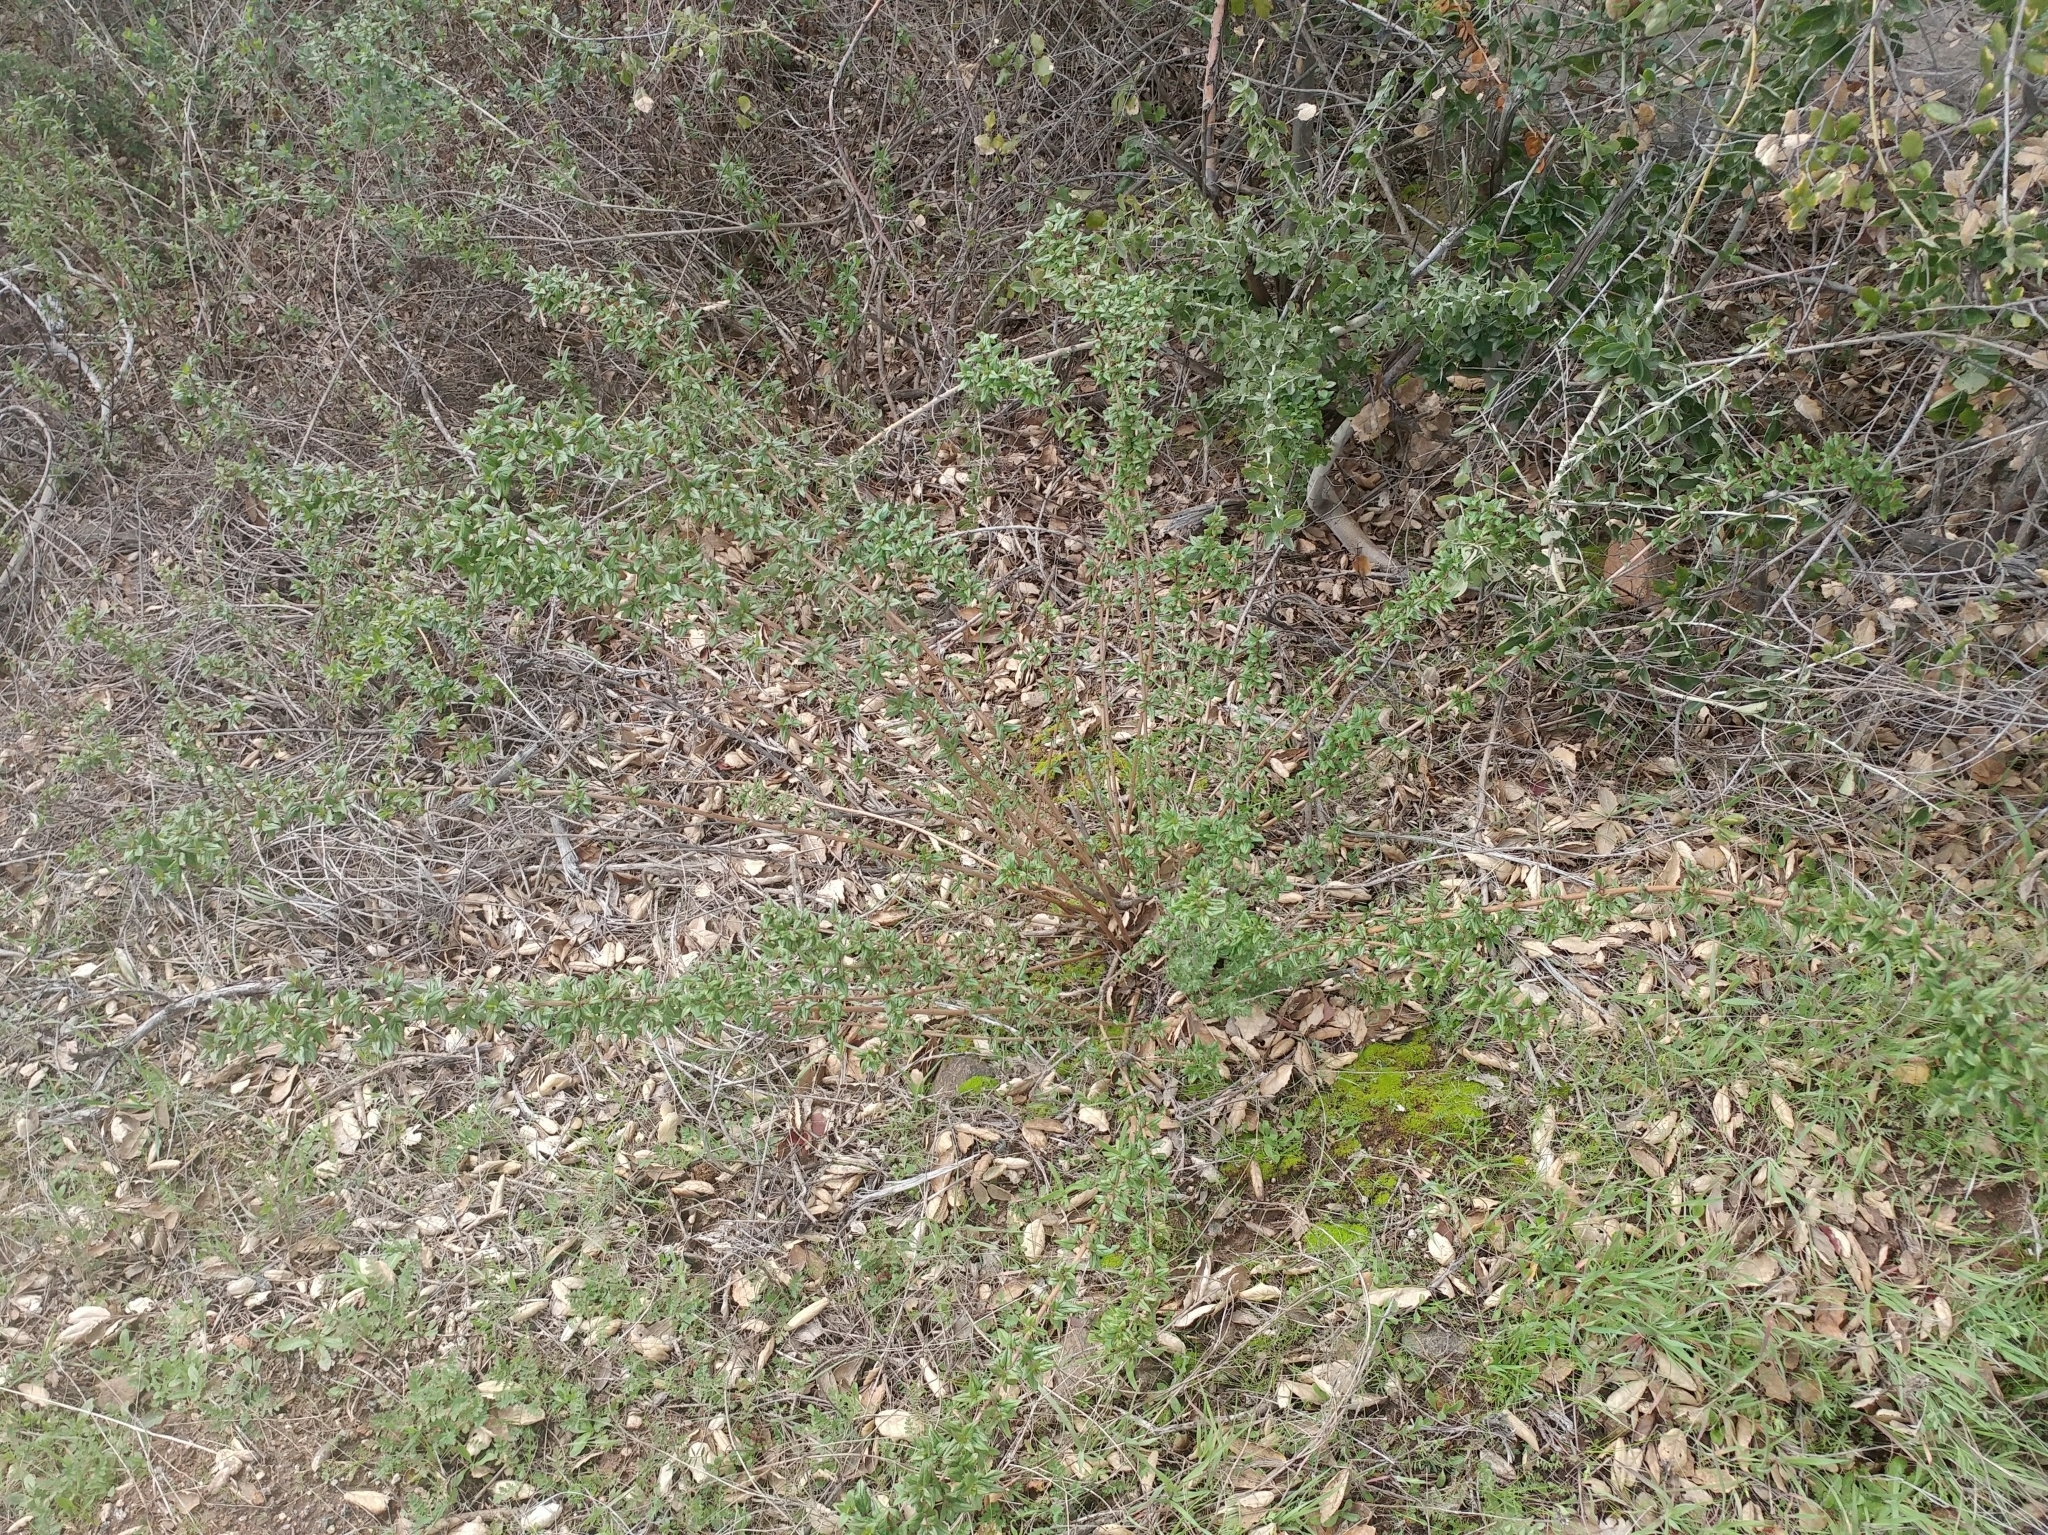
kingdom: Plantae
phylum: Tracheophyta
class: Magnoliopsida
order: Lamiales
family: Plantaginaceae
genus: Keckiella
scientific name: Keckiella cordifolia
